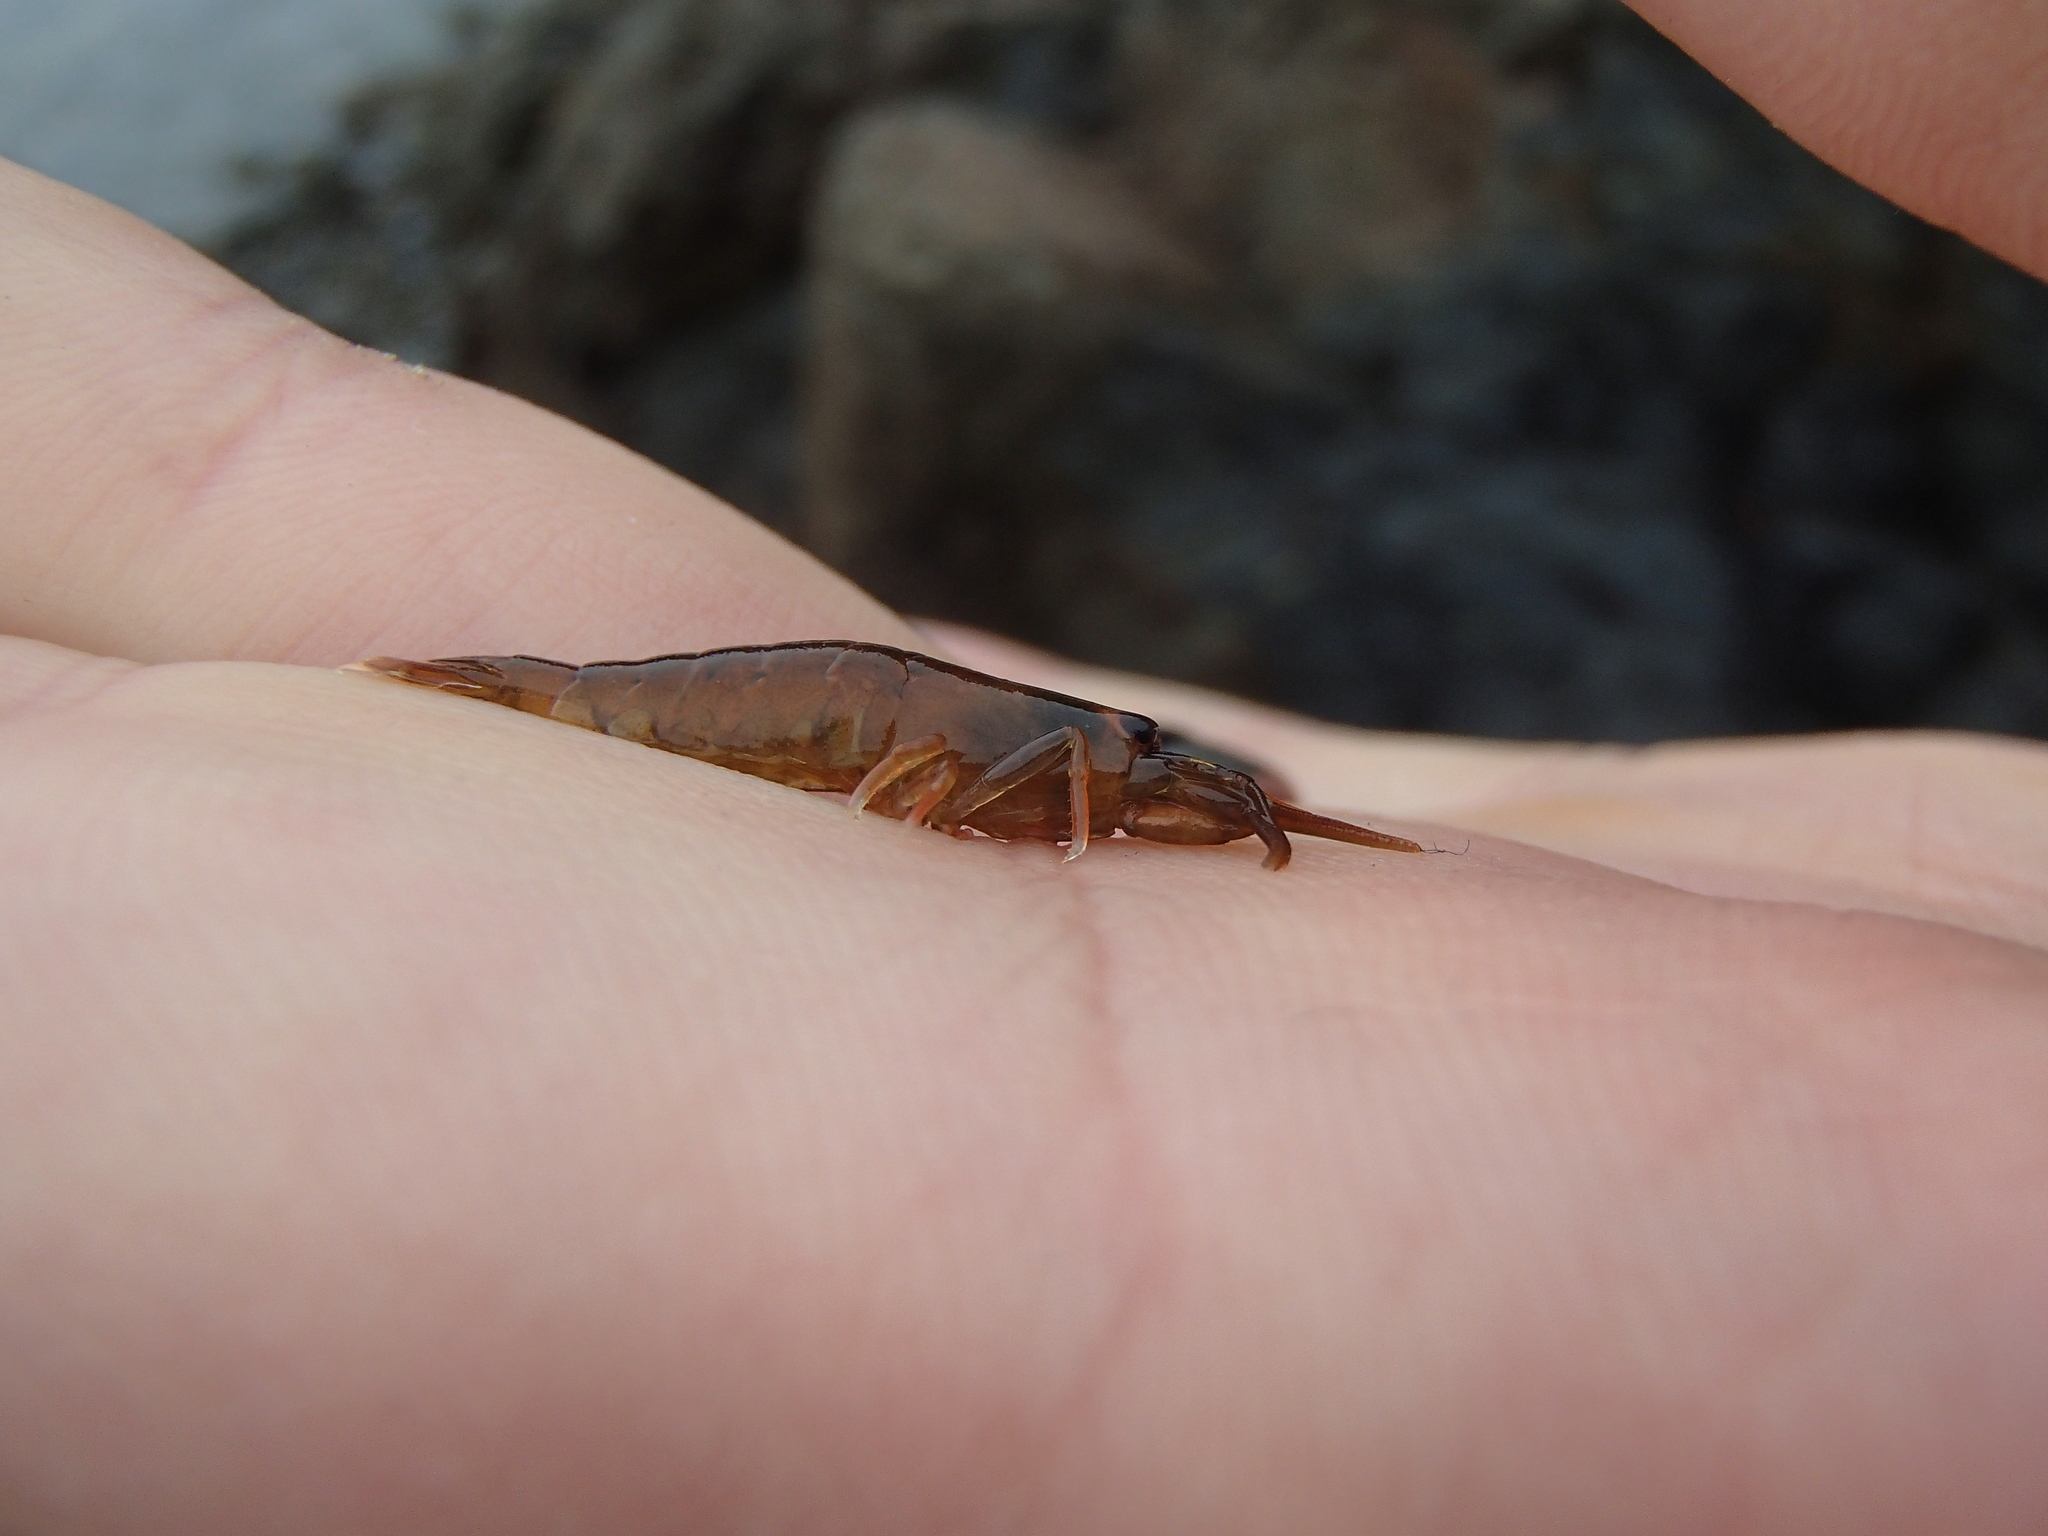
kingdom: Animalia
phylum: Arthropoda
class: Malacostraca
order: Decapoda
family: Alpheidae
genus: Betaeopsis
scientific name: Betaeopsis aequimanus
